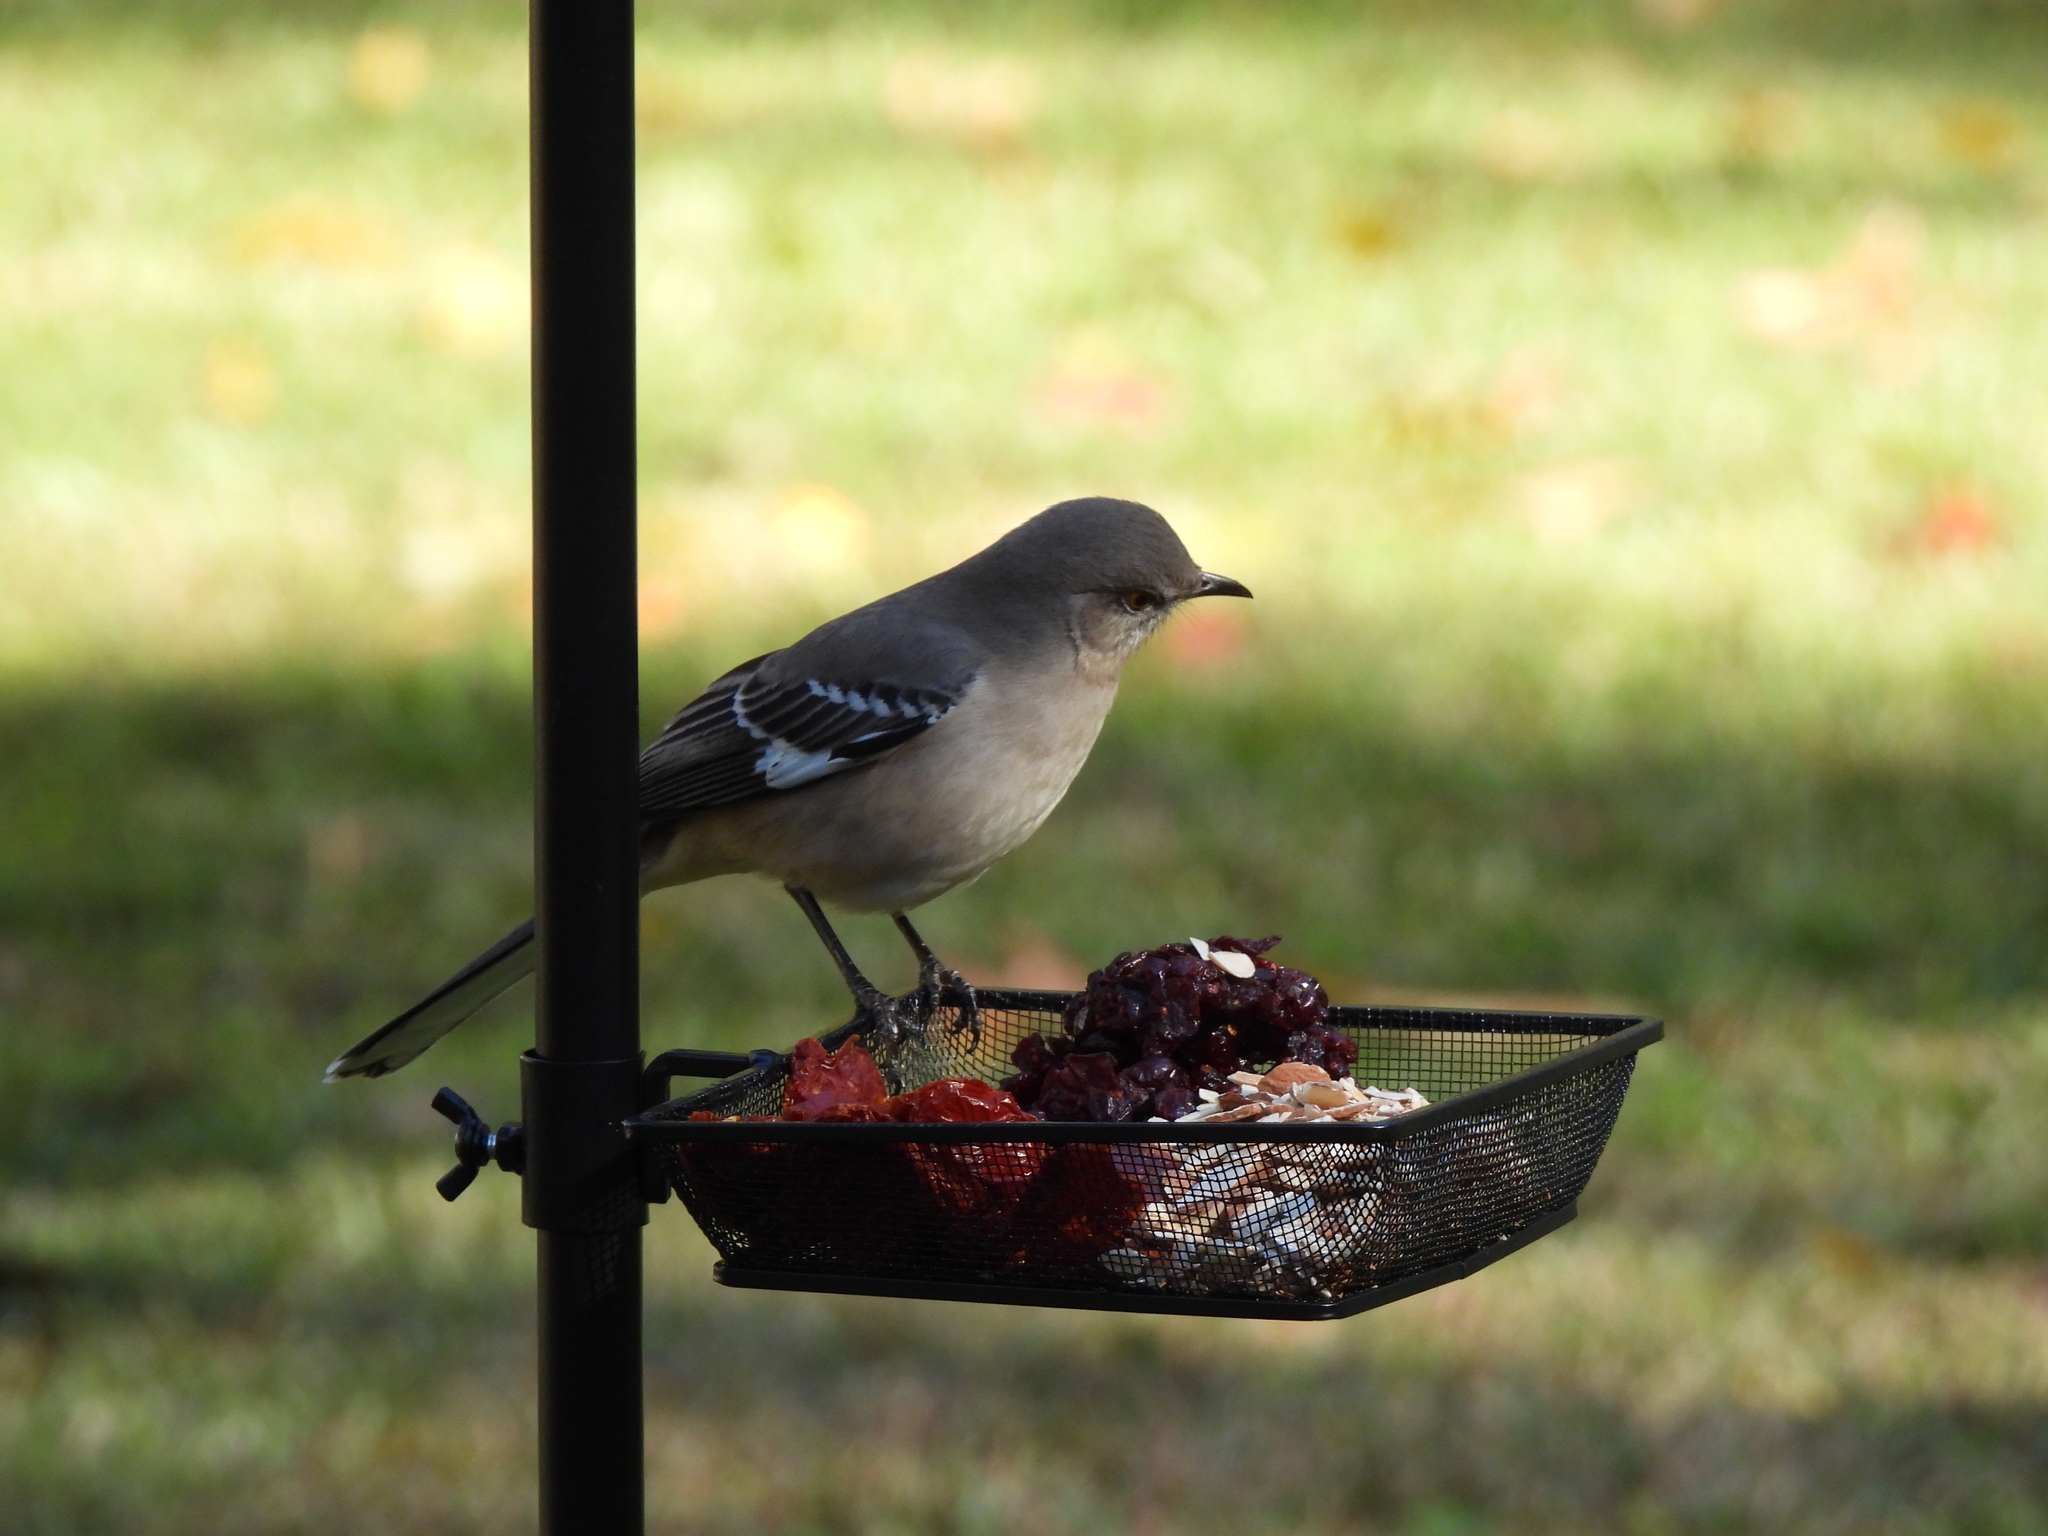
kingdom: Animalia
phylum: Chordata
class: Aves
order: Passeriformes
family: Mimidae
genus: Mimus
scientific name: Mimus polyglottos
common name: Northern mockingbird
